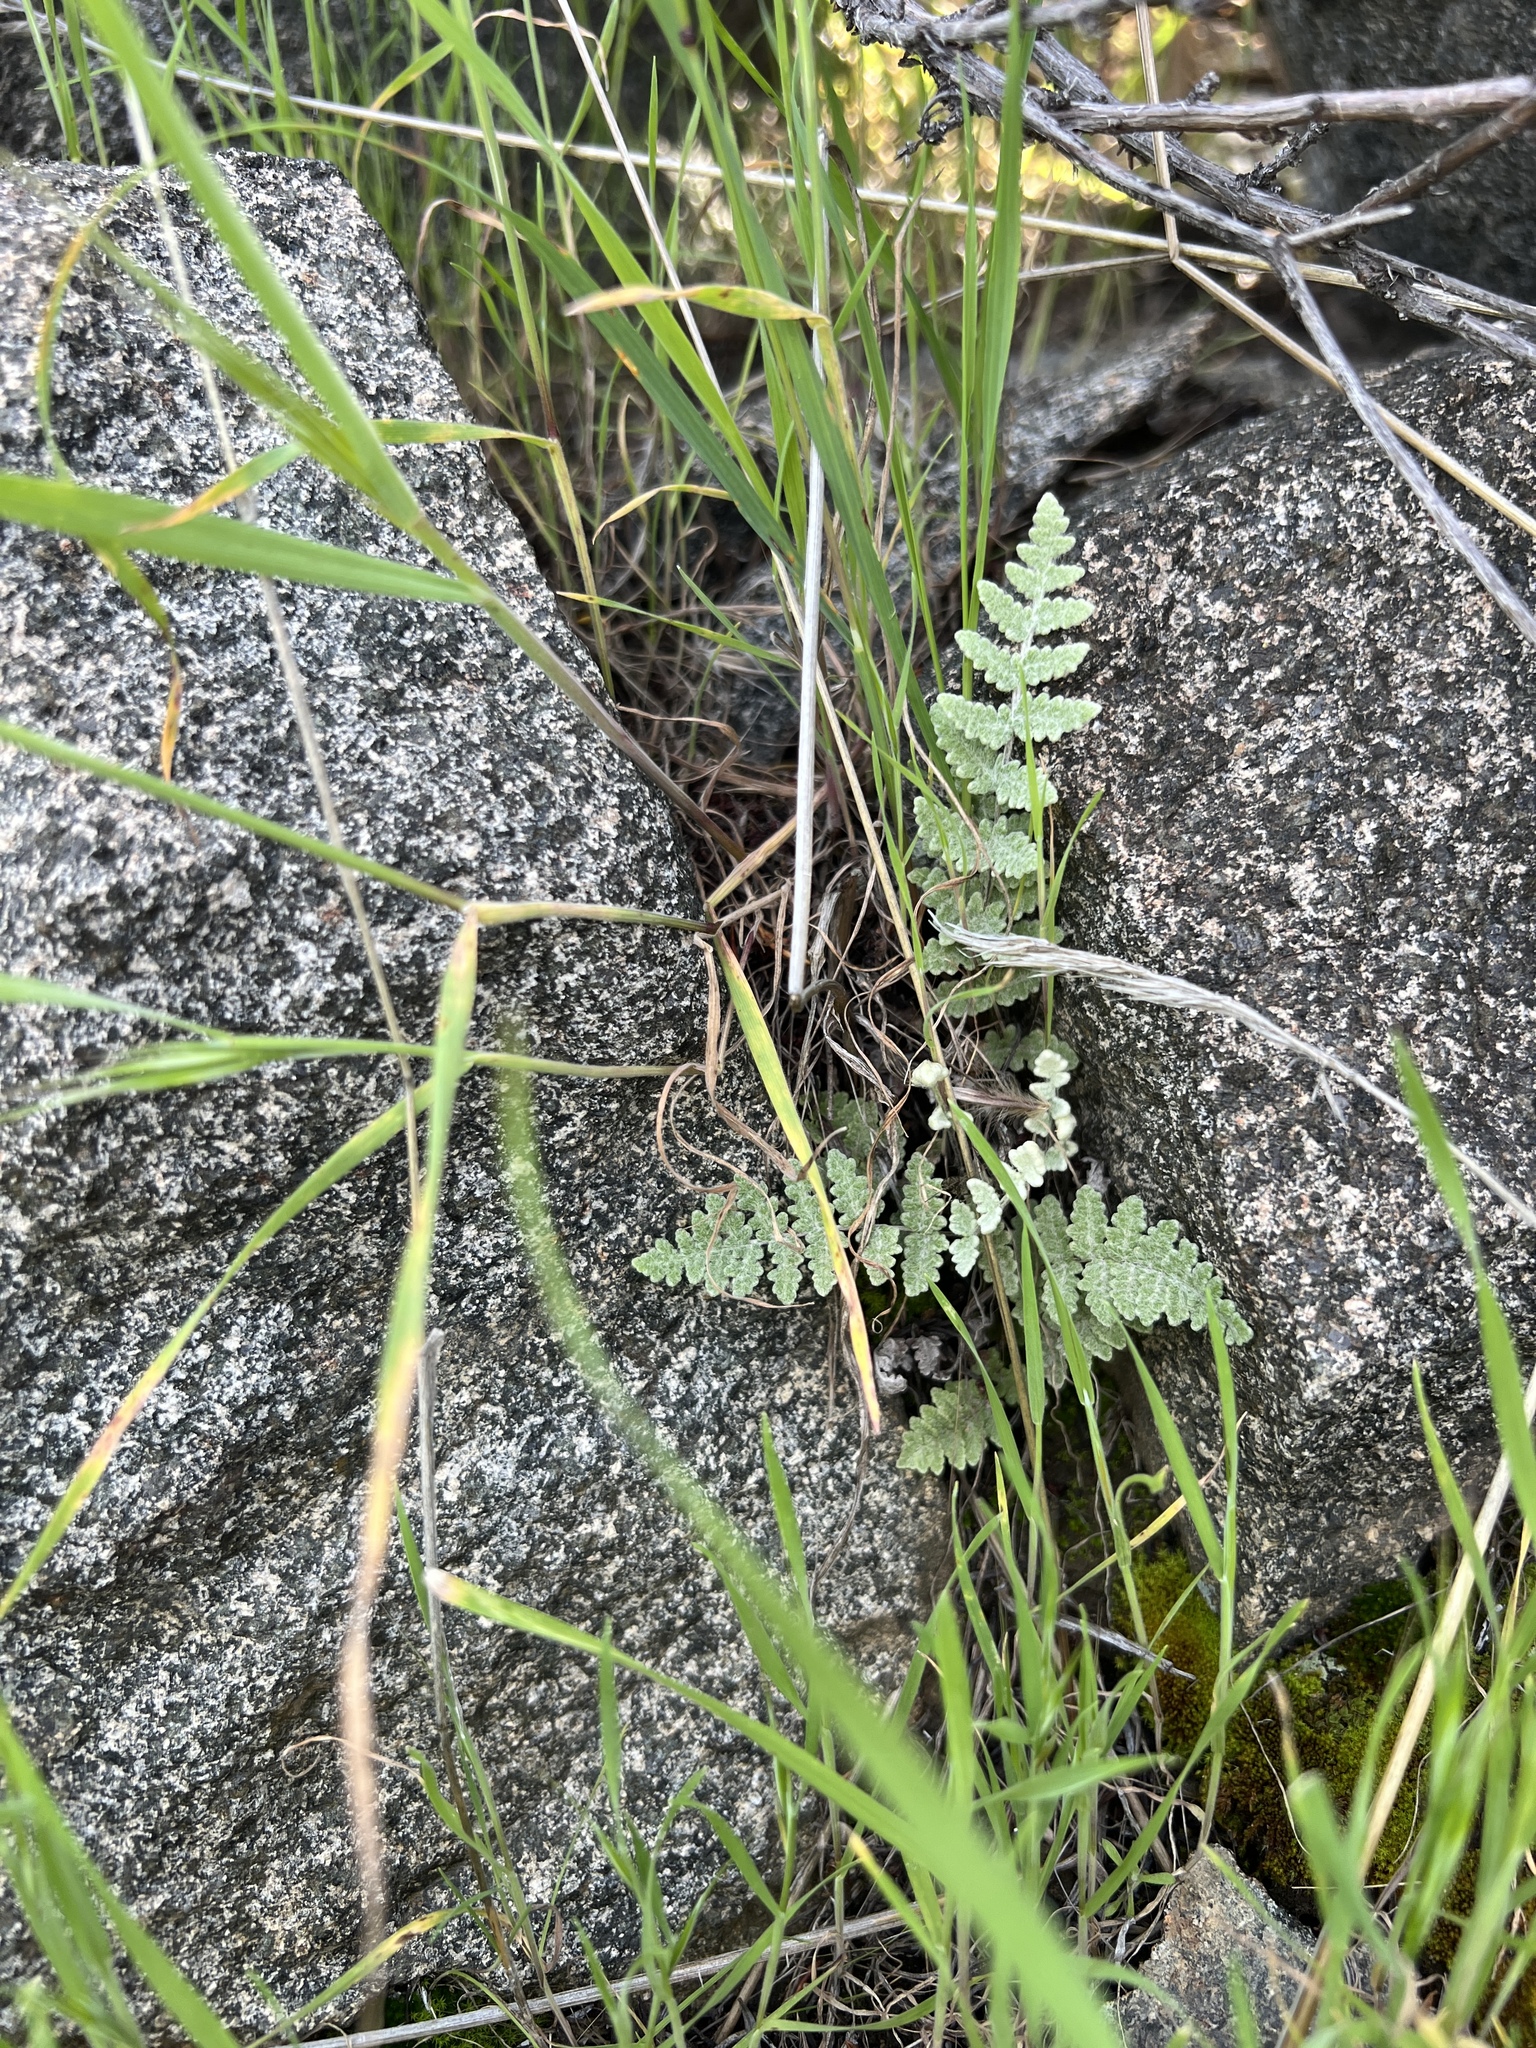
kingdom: Plantae
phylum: Tracheophyta
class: Polypodiopsida
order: Polypodiales
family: Pteridaceae
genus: Myriopteris
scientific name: Myriopteris newberryi
